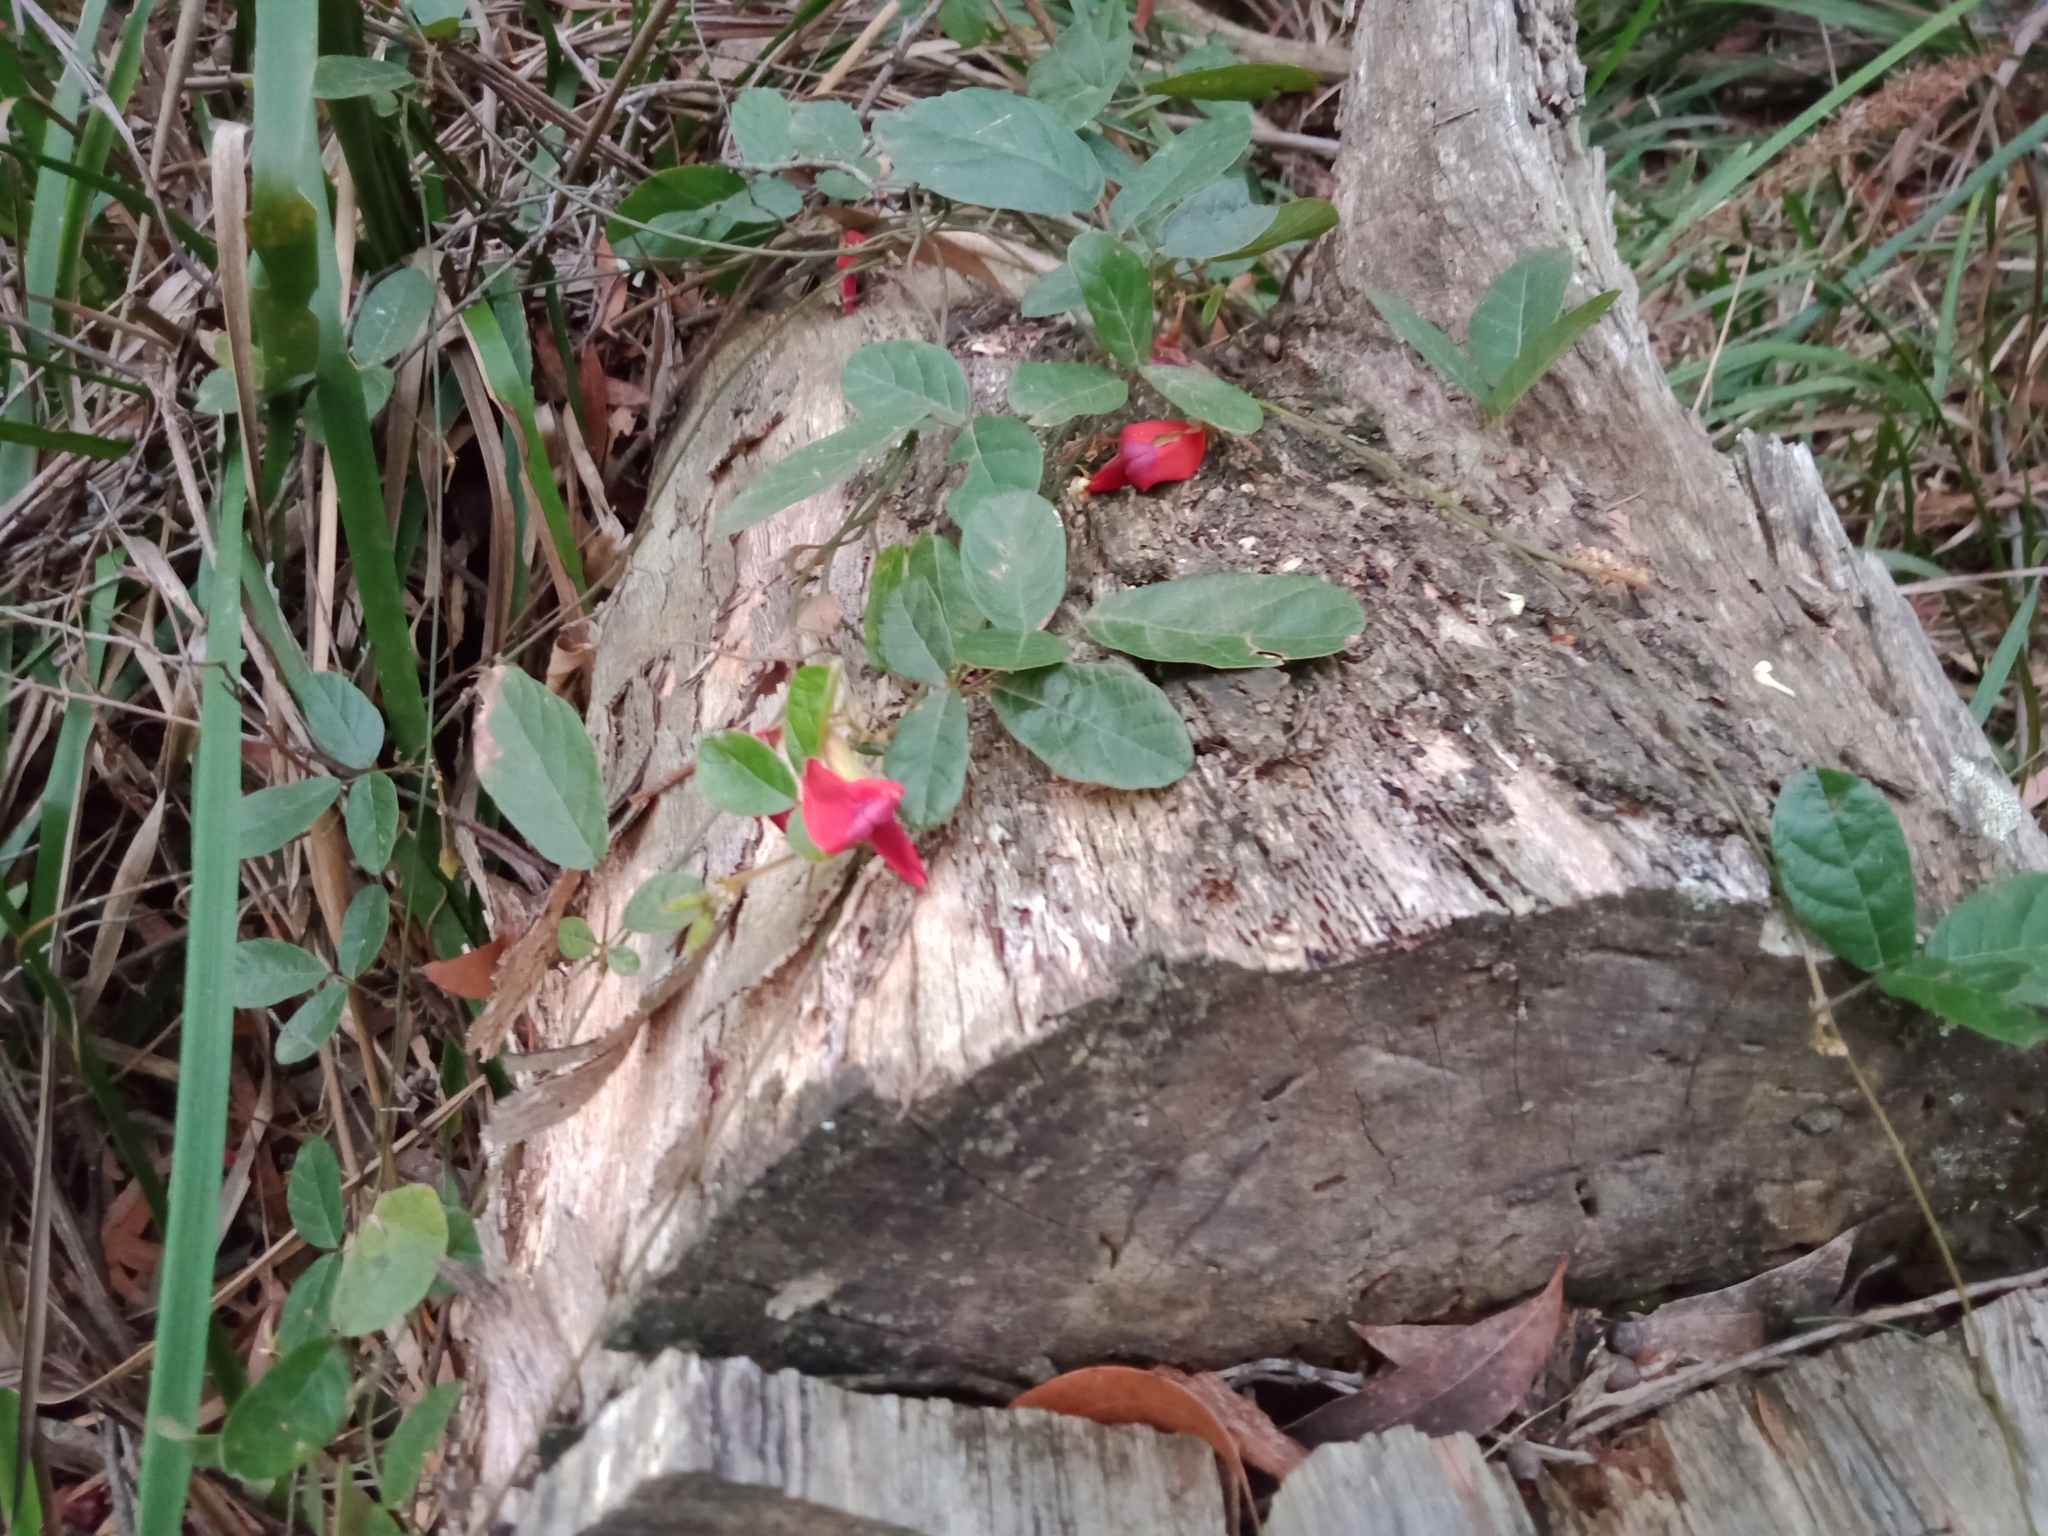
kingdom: Plantae
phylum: Tracheophyta
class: Magnoliopsida
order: Fabales
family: Fabaceae
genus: Kennedia
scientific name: Kennedia rubicunda
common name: Red kennedy-pea
